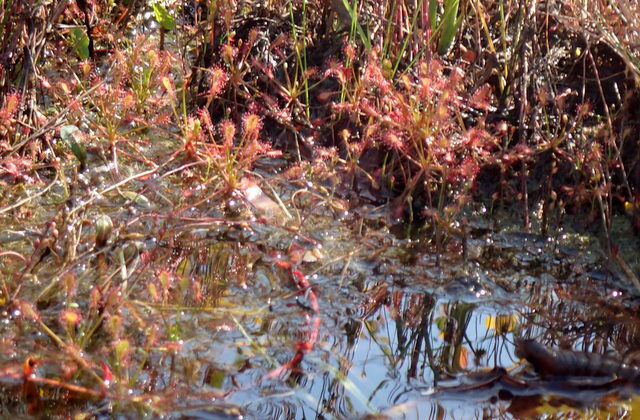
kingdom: Plantae
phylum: Tracheophyta
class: Magnoliopsida
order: Caryophyllales
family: Droseraceae
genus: Drosera
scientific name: Drosera intermedia
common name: Oblong-leaved sundew
